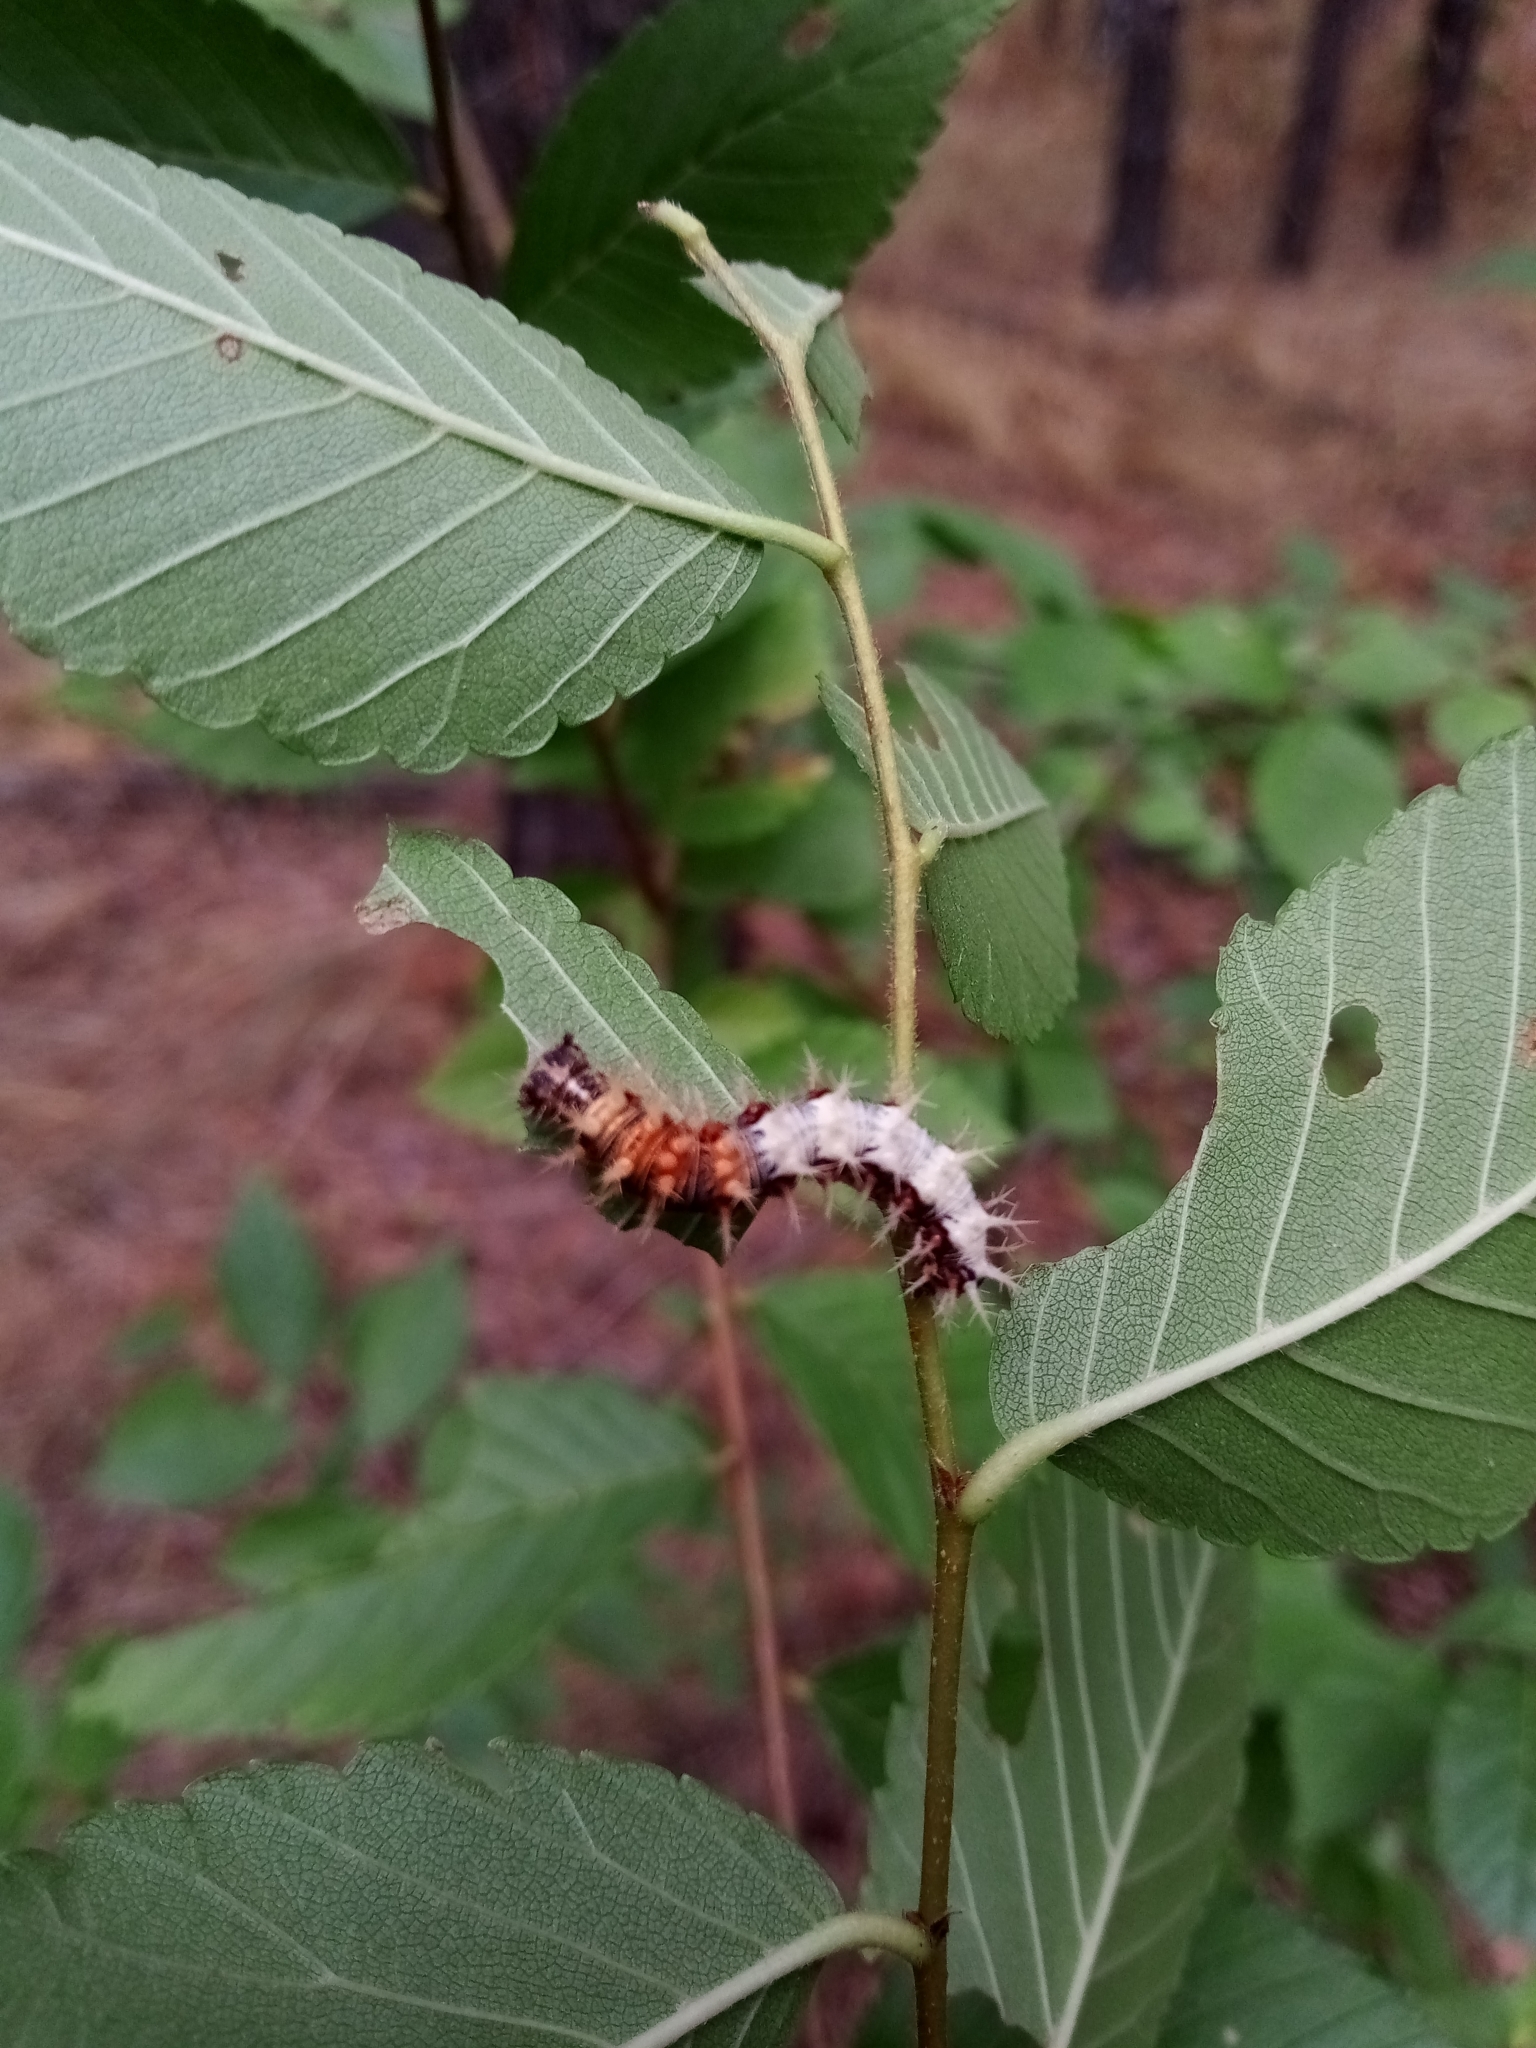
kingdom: Animalia
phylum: Arthropoda
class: Insecta
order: Lepidoptera
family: Nymphalidae
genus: Polygonia
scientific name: Polygonia c-album
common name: Comma
